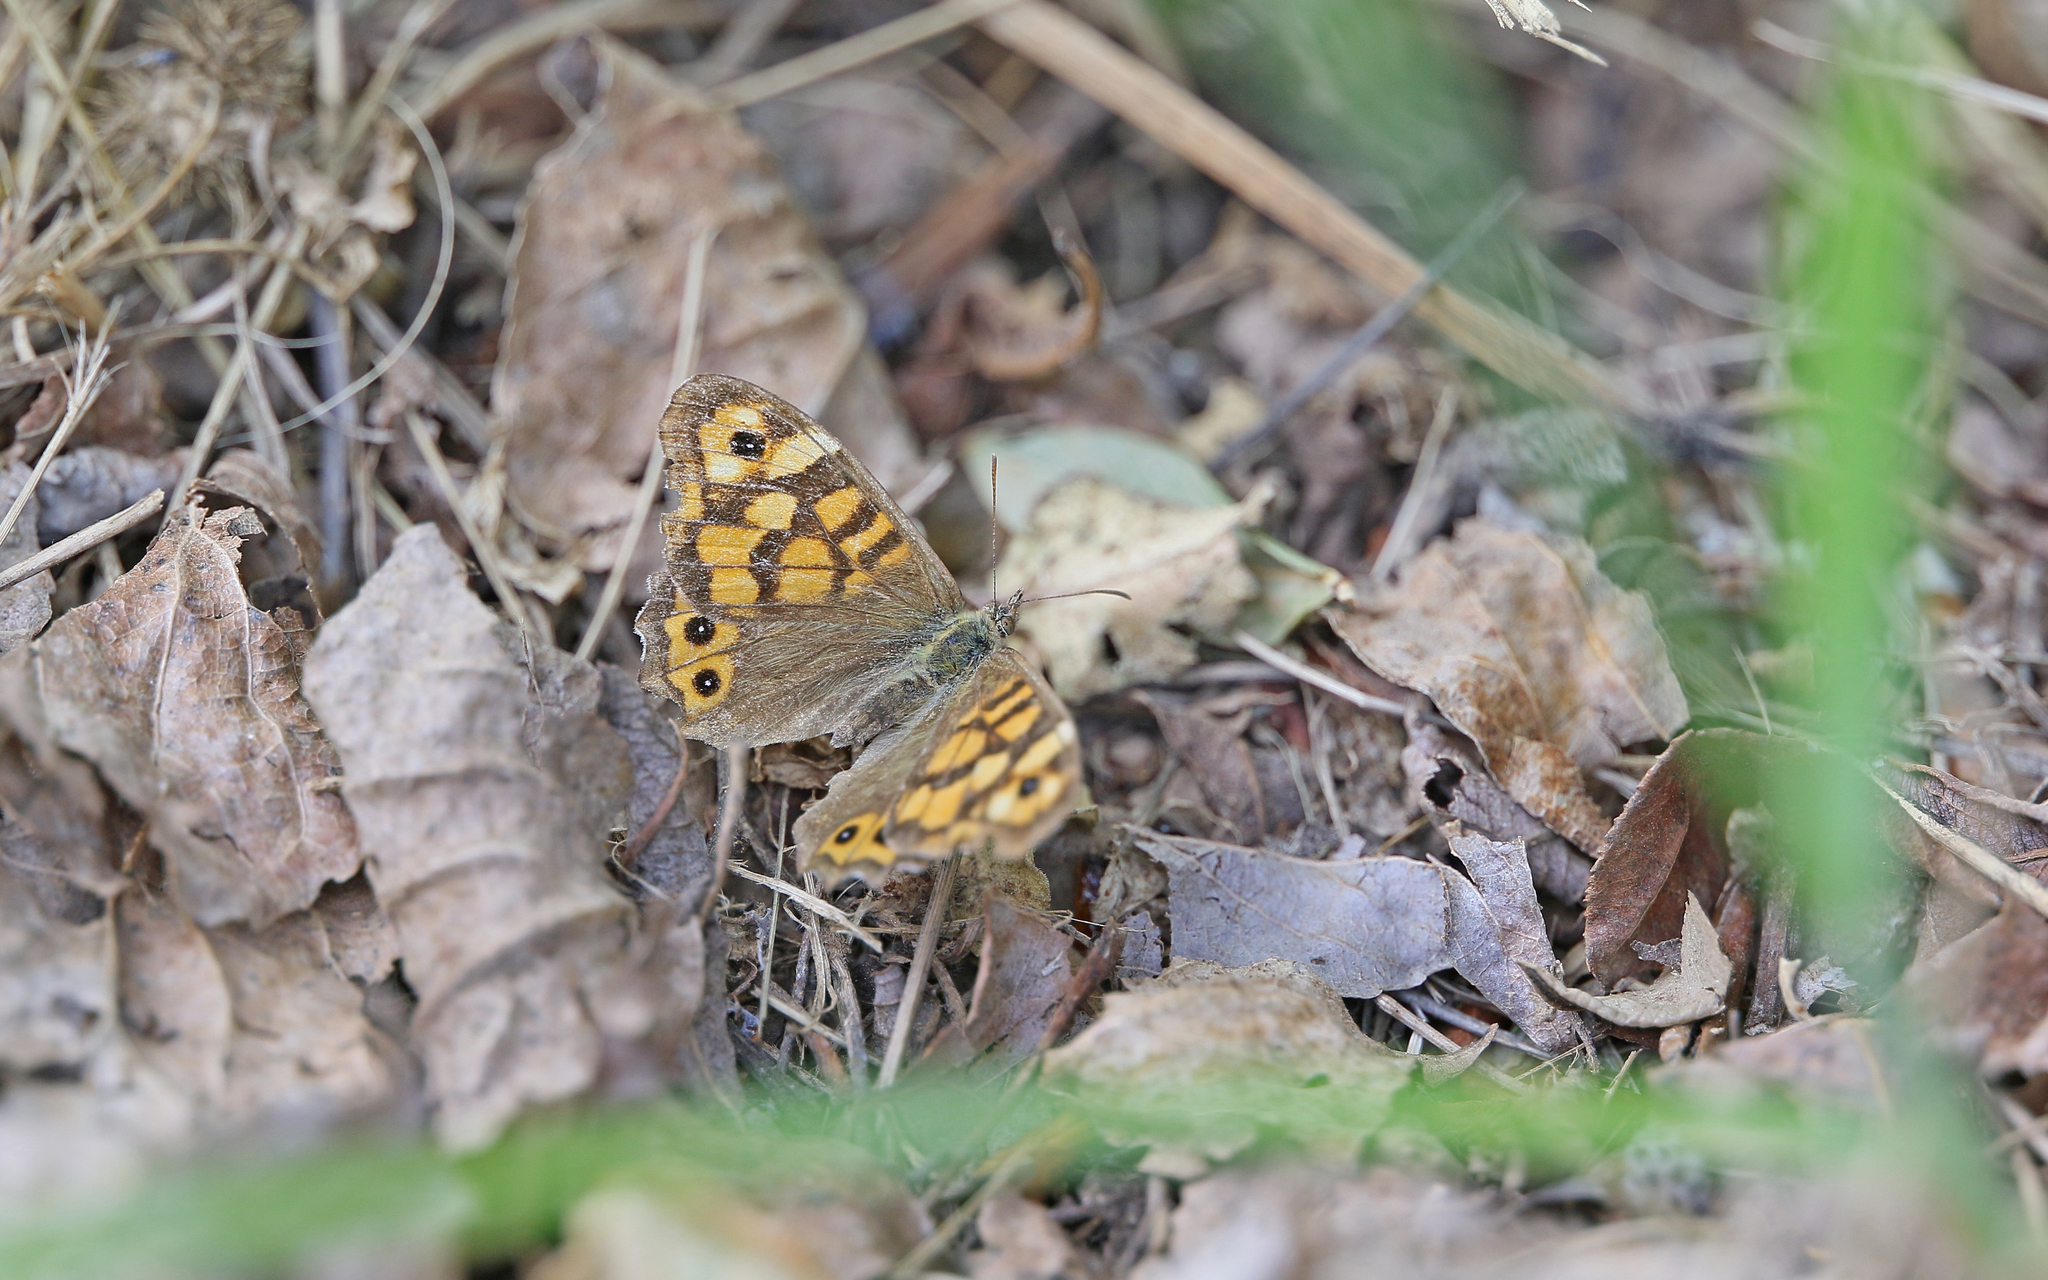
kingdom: Animalia
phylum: Arthropoda
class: Insecta
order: Lepidoptera
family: Nymphalidae
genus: Pararge
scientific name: Pararge aegeria
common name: Speckled wood
